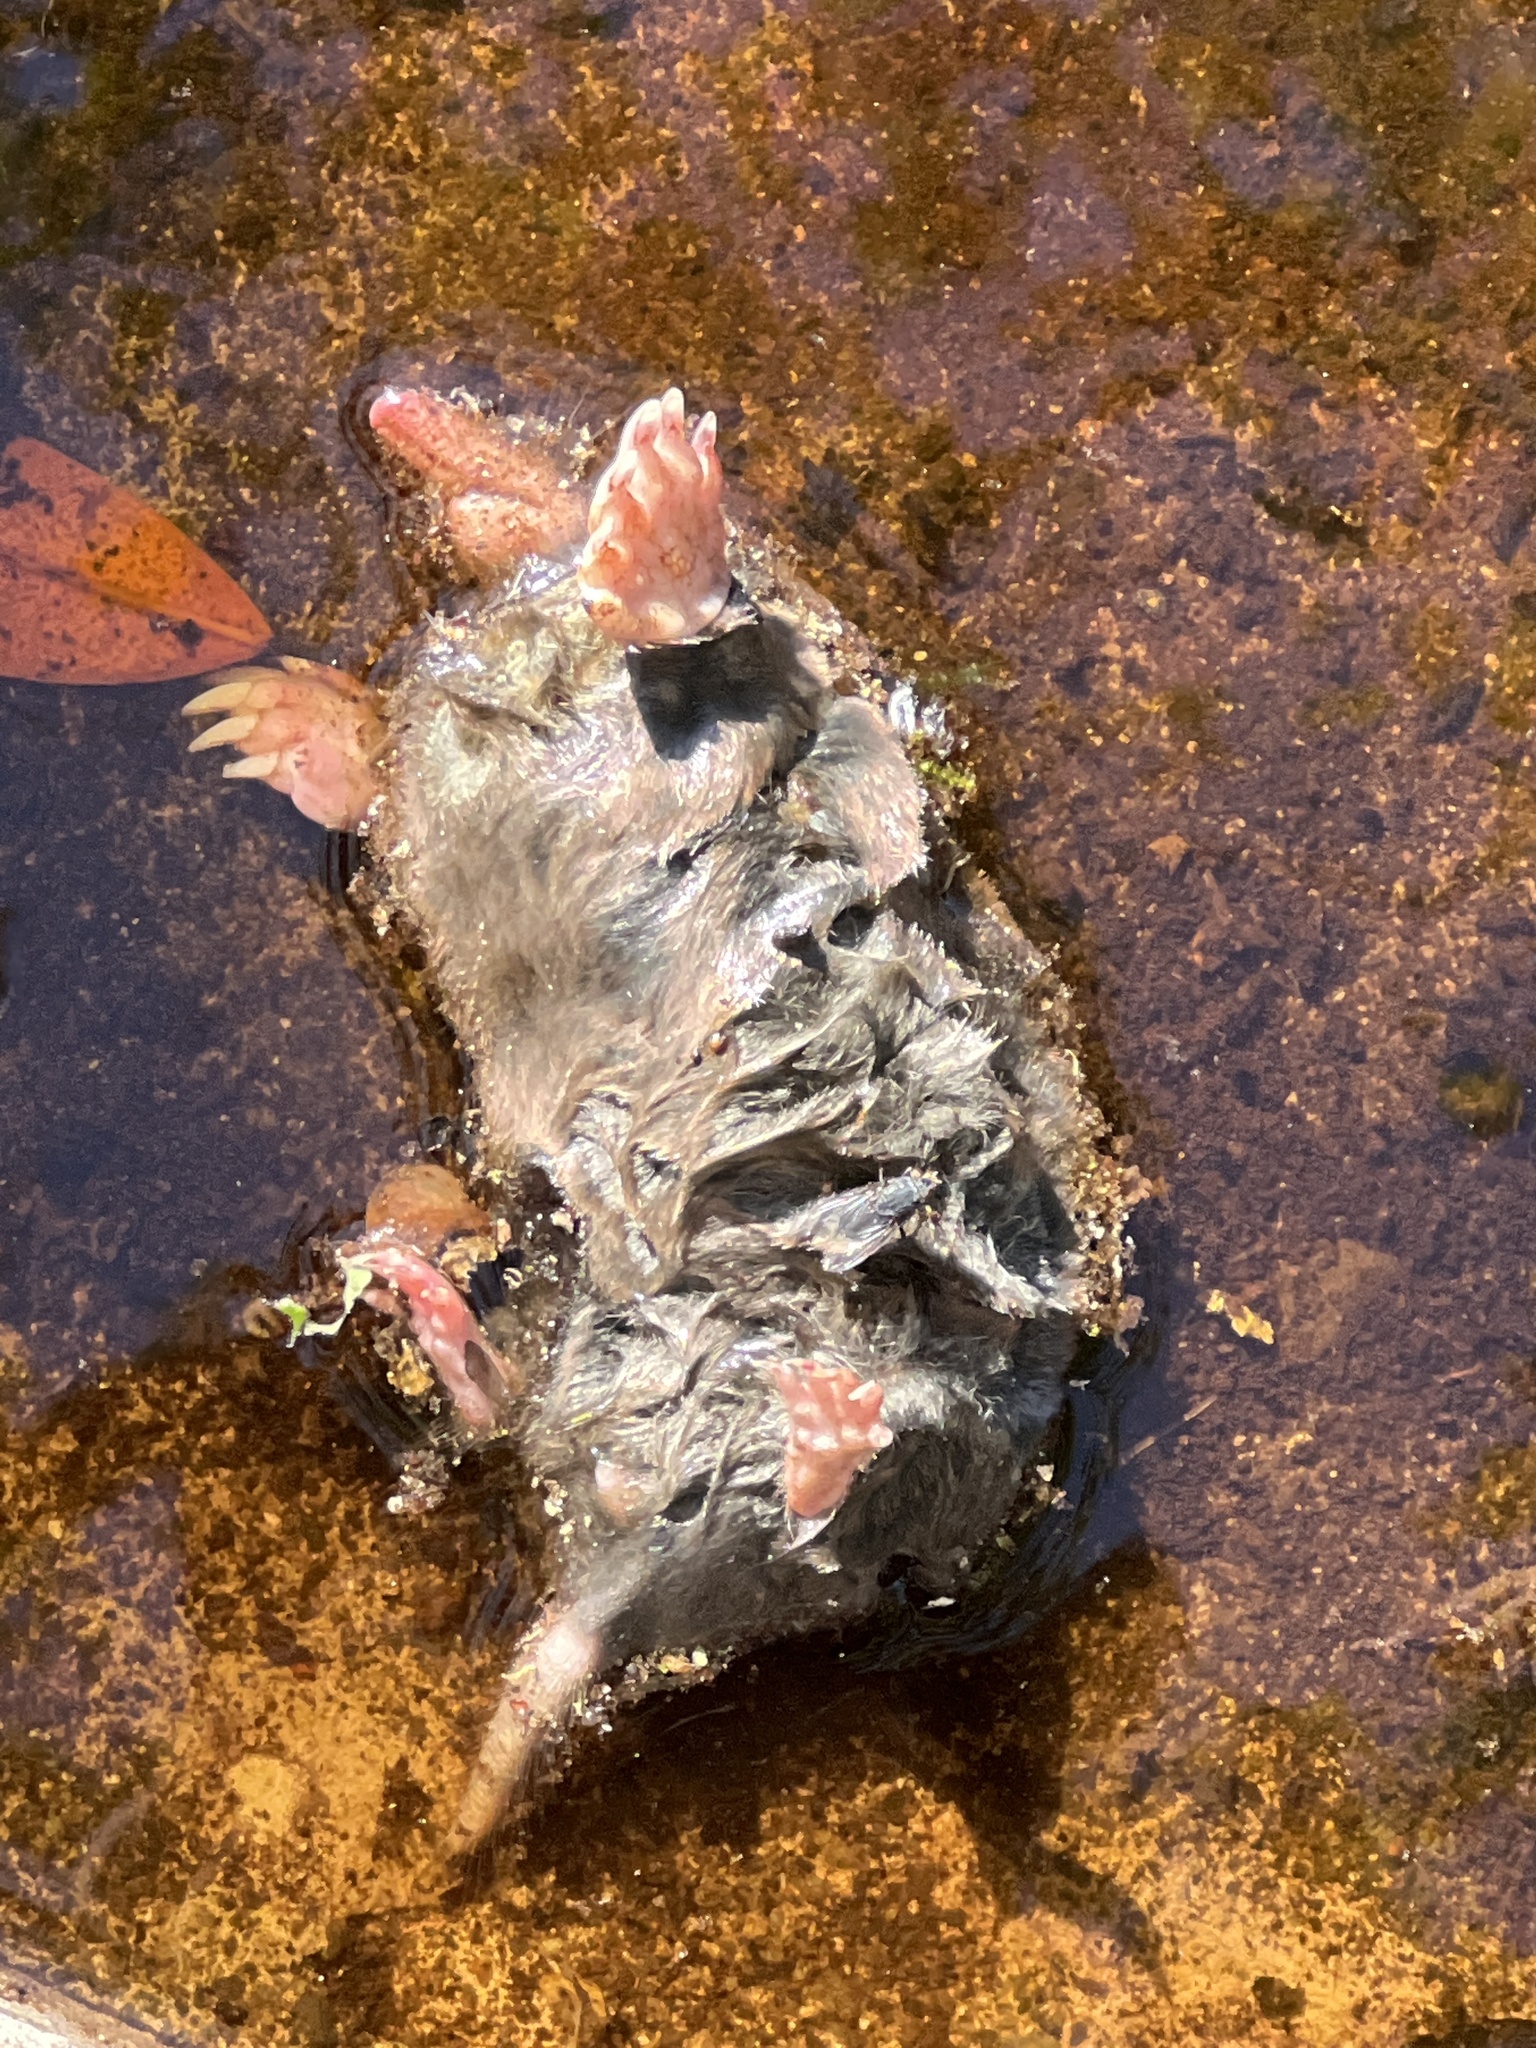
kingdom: Animalia
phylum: Chordata
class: Mammalia
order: Soricomorpha
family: Talpidae
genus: Scapanus
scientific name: Scapanus latimanus
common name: Broad-footed mole
